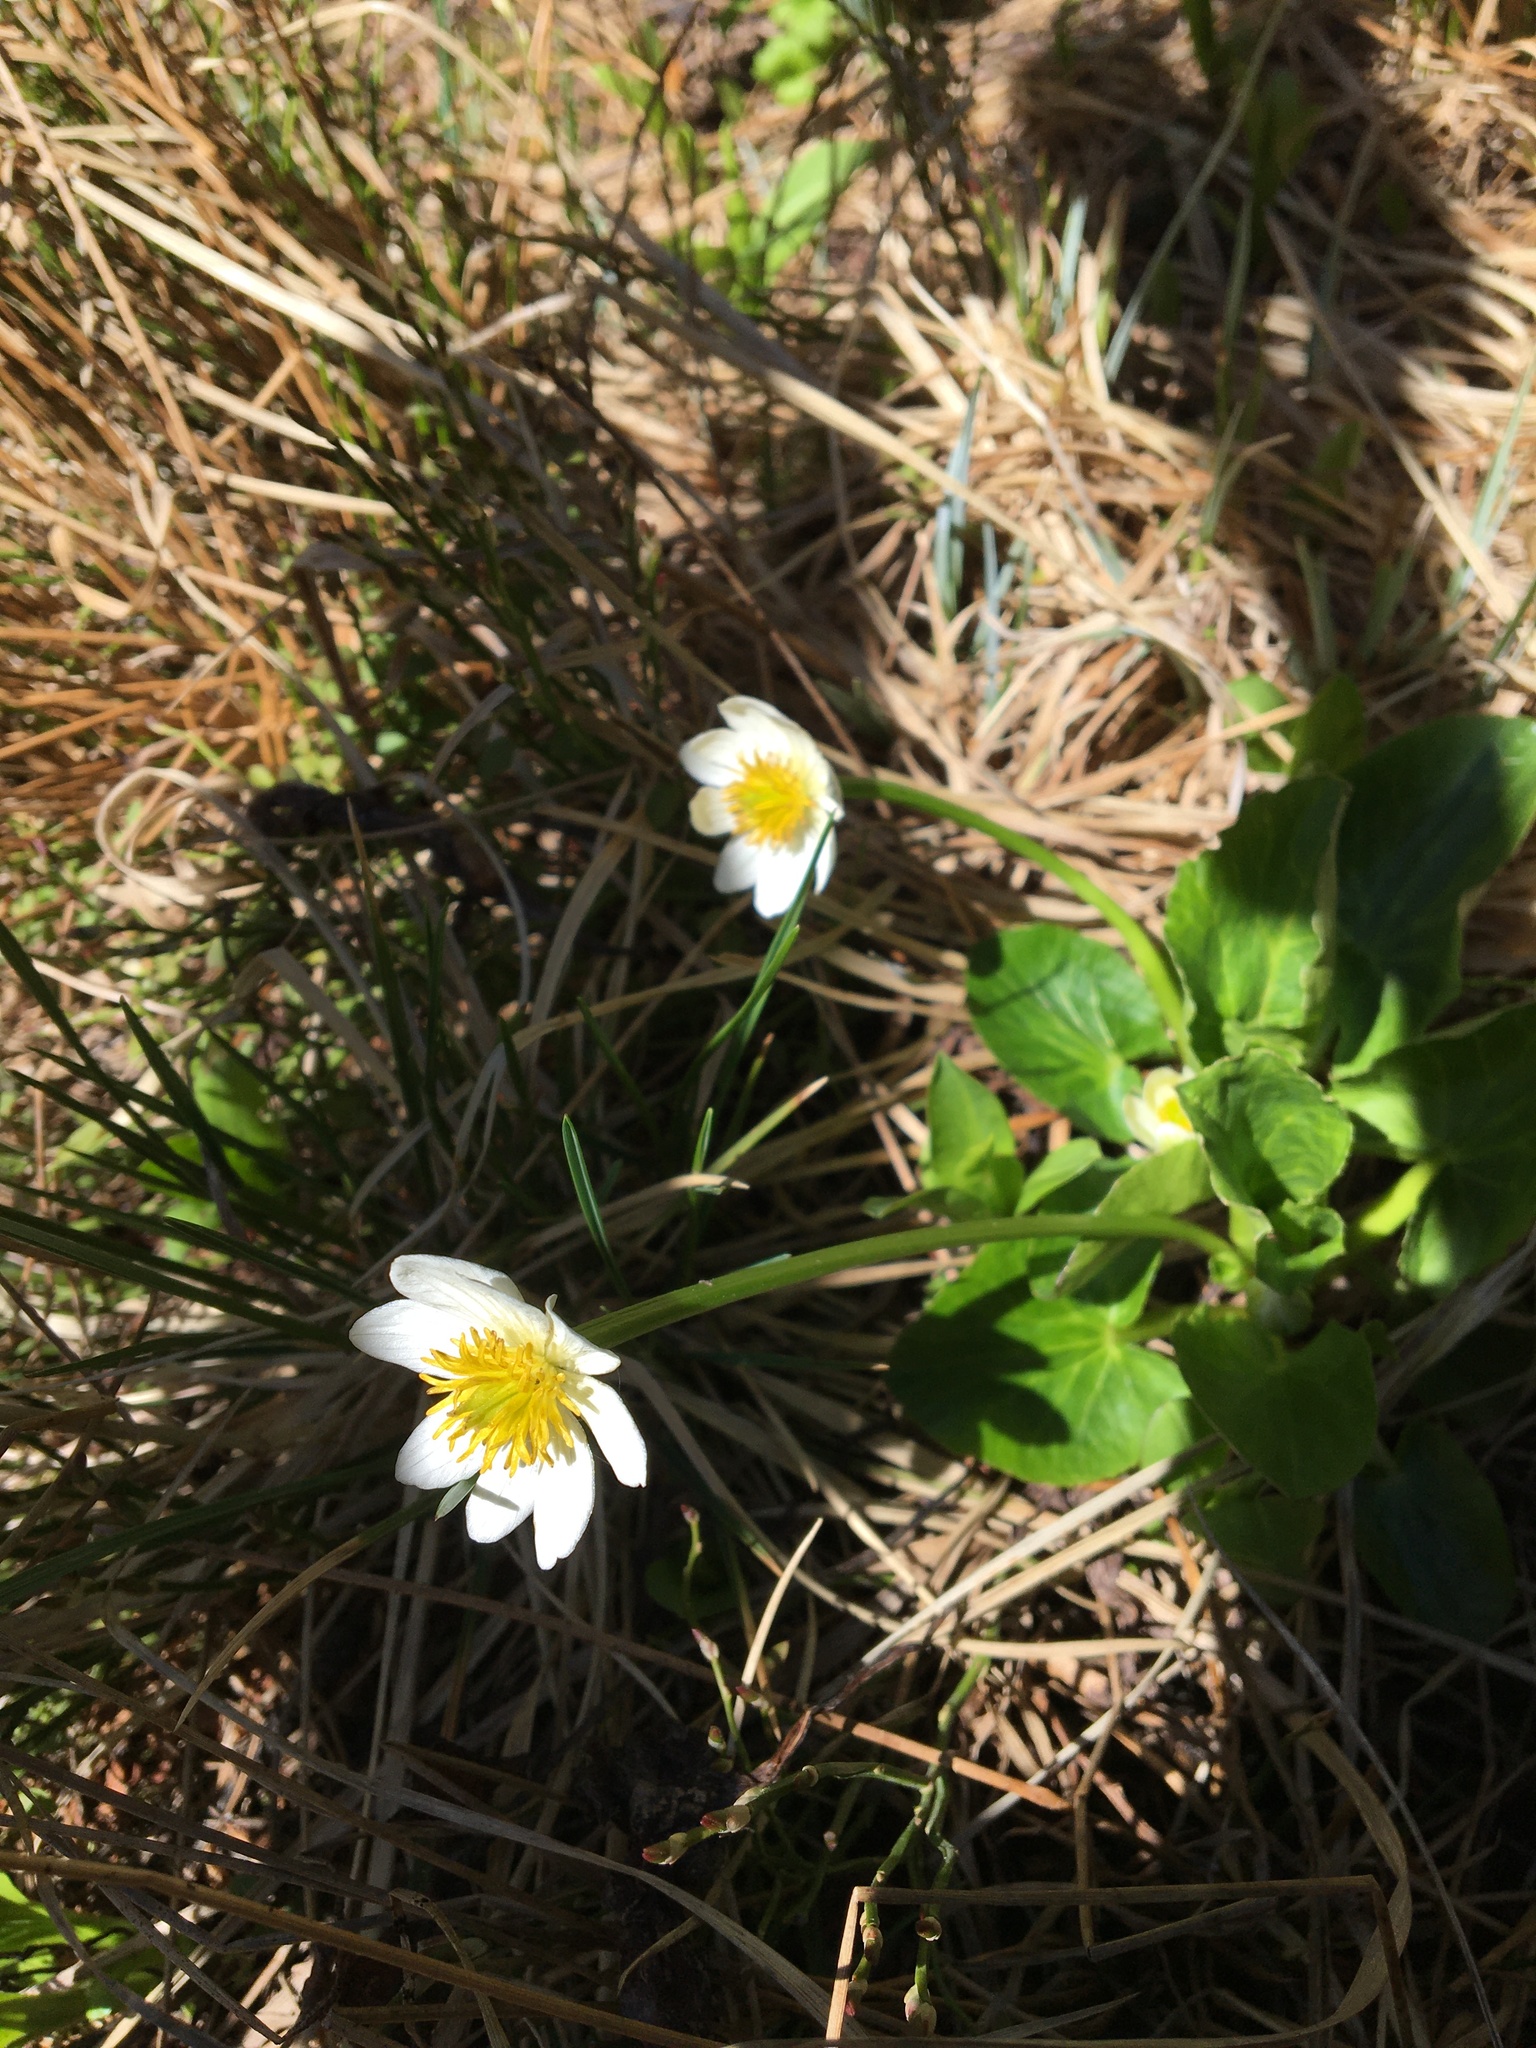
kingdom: Plantae
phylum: Tracheophyta
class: Magnoliopsida
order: Ranunculales
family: Ranunculaceae
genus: Caltha
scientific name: Caltha leptosepala
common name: Elkslip
